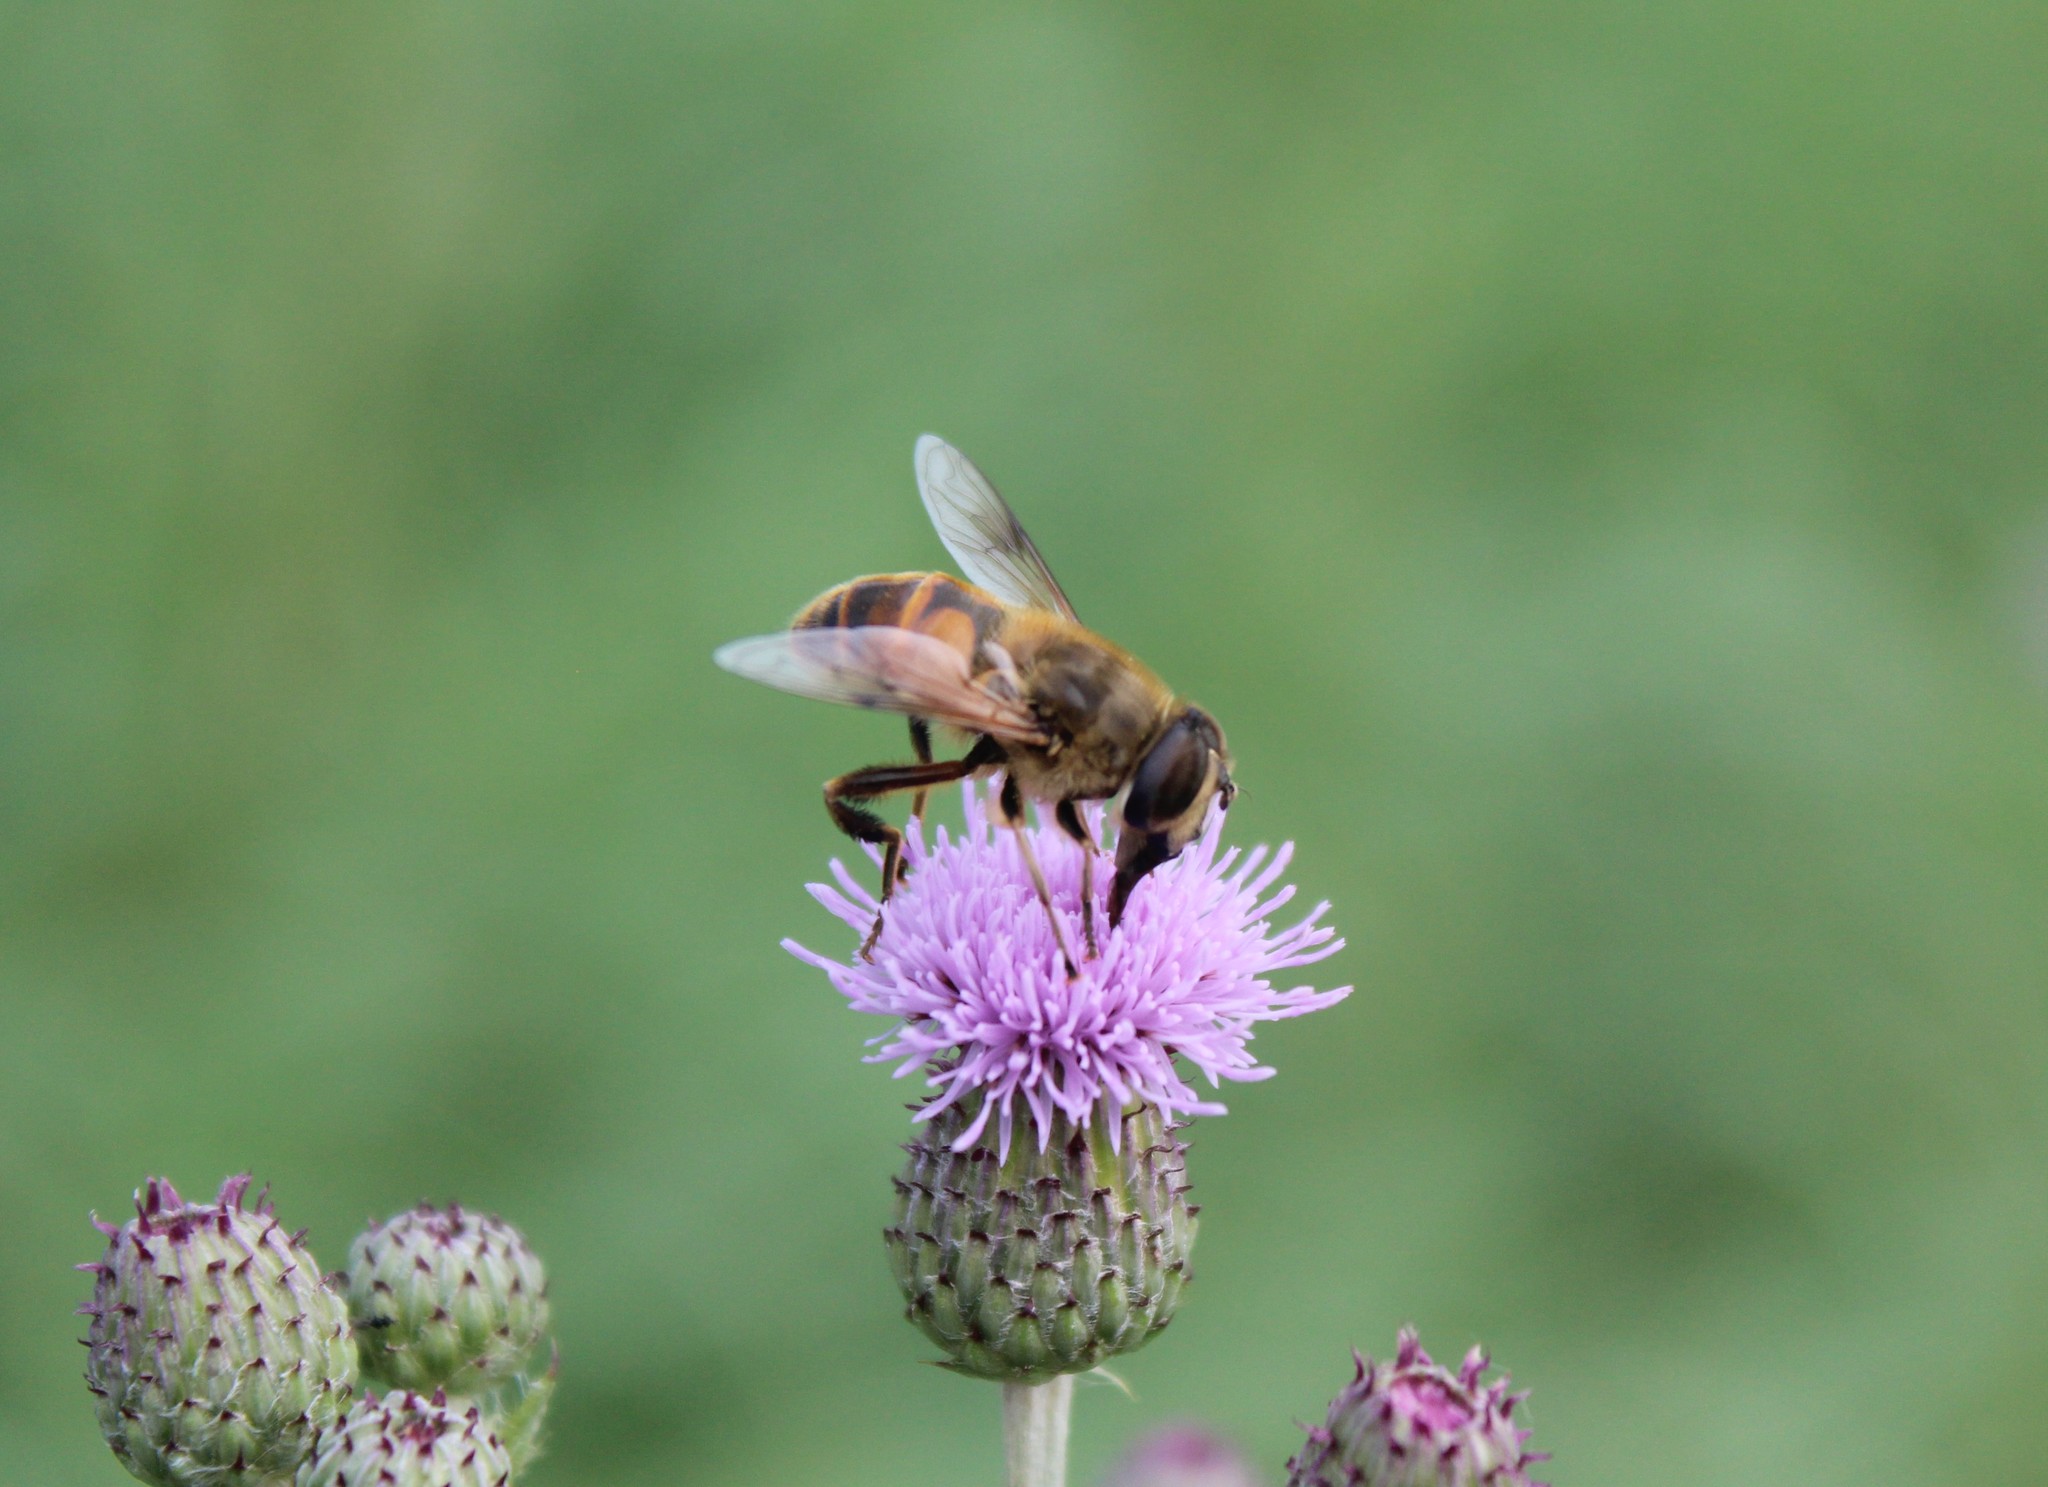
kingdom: Animalia
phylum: Arthropoda
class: Insecta
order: Diptera
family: Syrphidae
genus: Eristalis
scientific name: Eristalis tenax
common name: Drone fly
